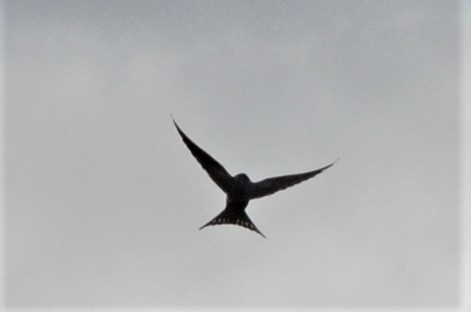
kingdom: Animalia
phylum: Chordata
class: Aves
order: Passeriformes
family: Hirundinidae
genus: Hirundo
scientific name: Hirundo rustica
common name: Barn swallow
